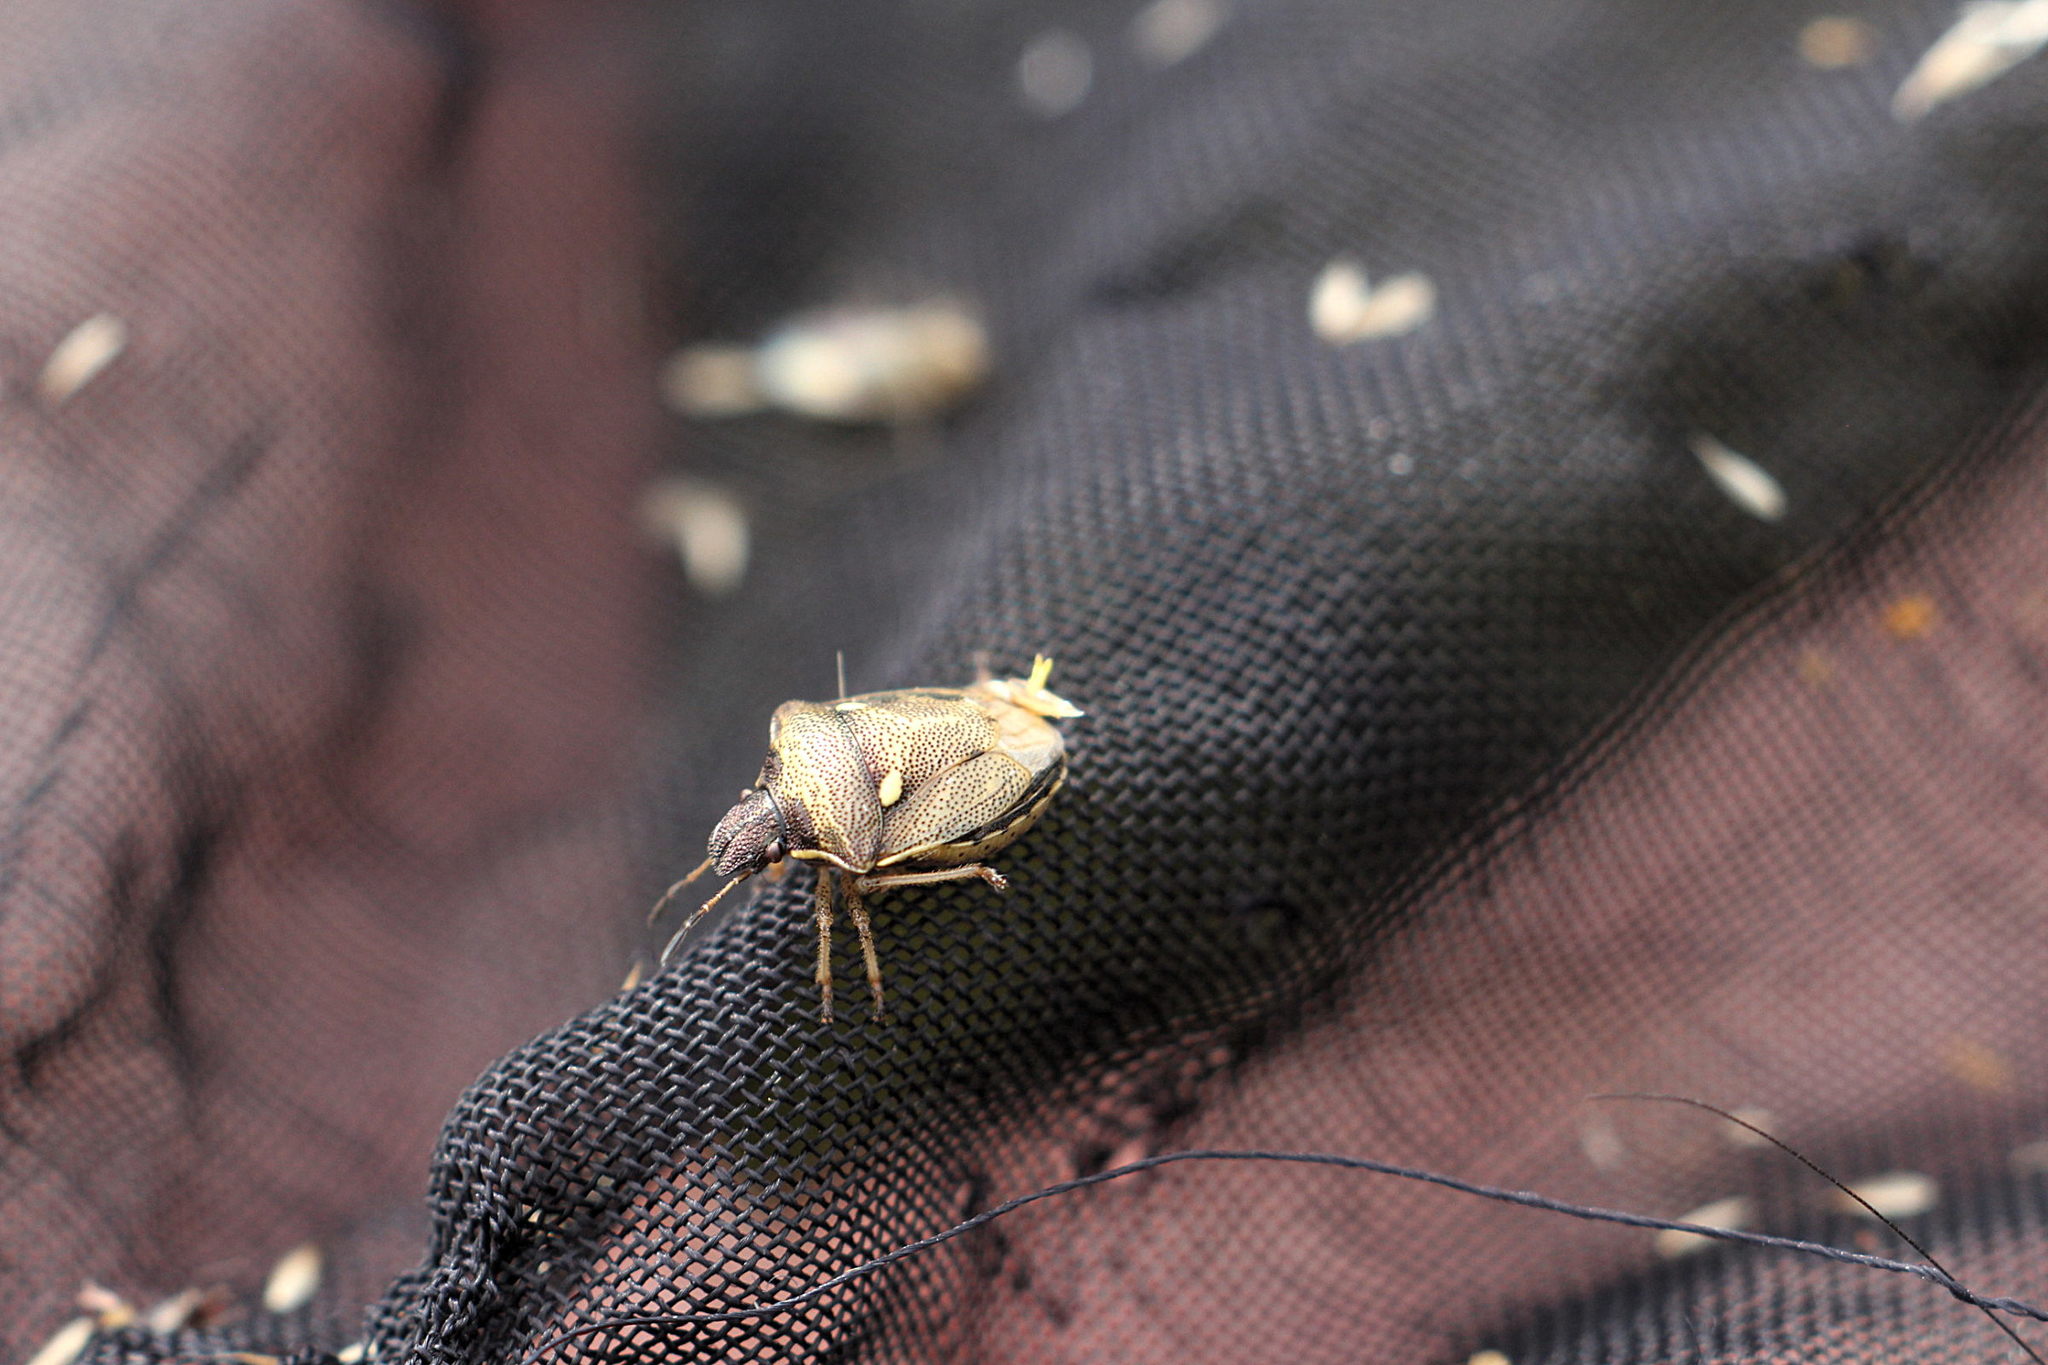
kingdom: Animalia
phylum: Arthropoda
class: Insecta
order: Hemiptera
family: Pentatomidae
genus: Eysarcoris
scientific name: Eysarcoris aeneus
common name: New forest shieldbug
